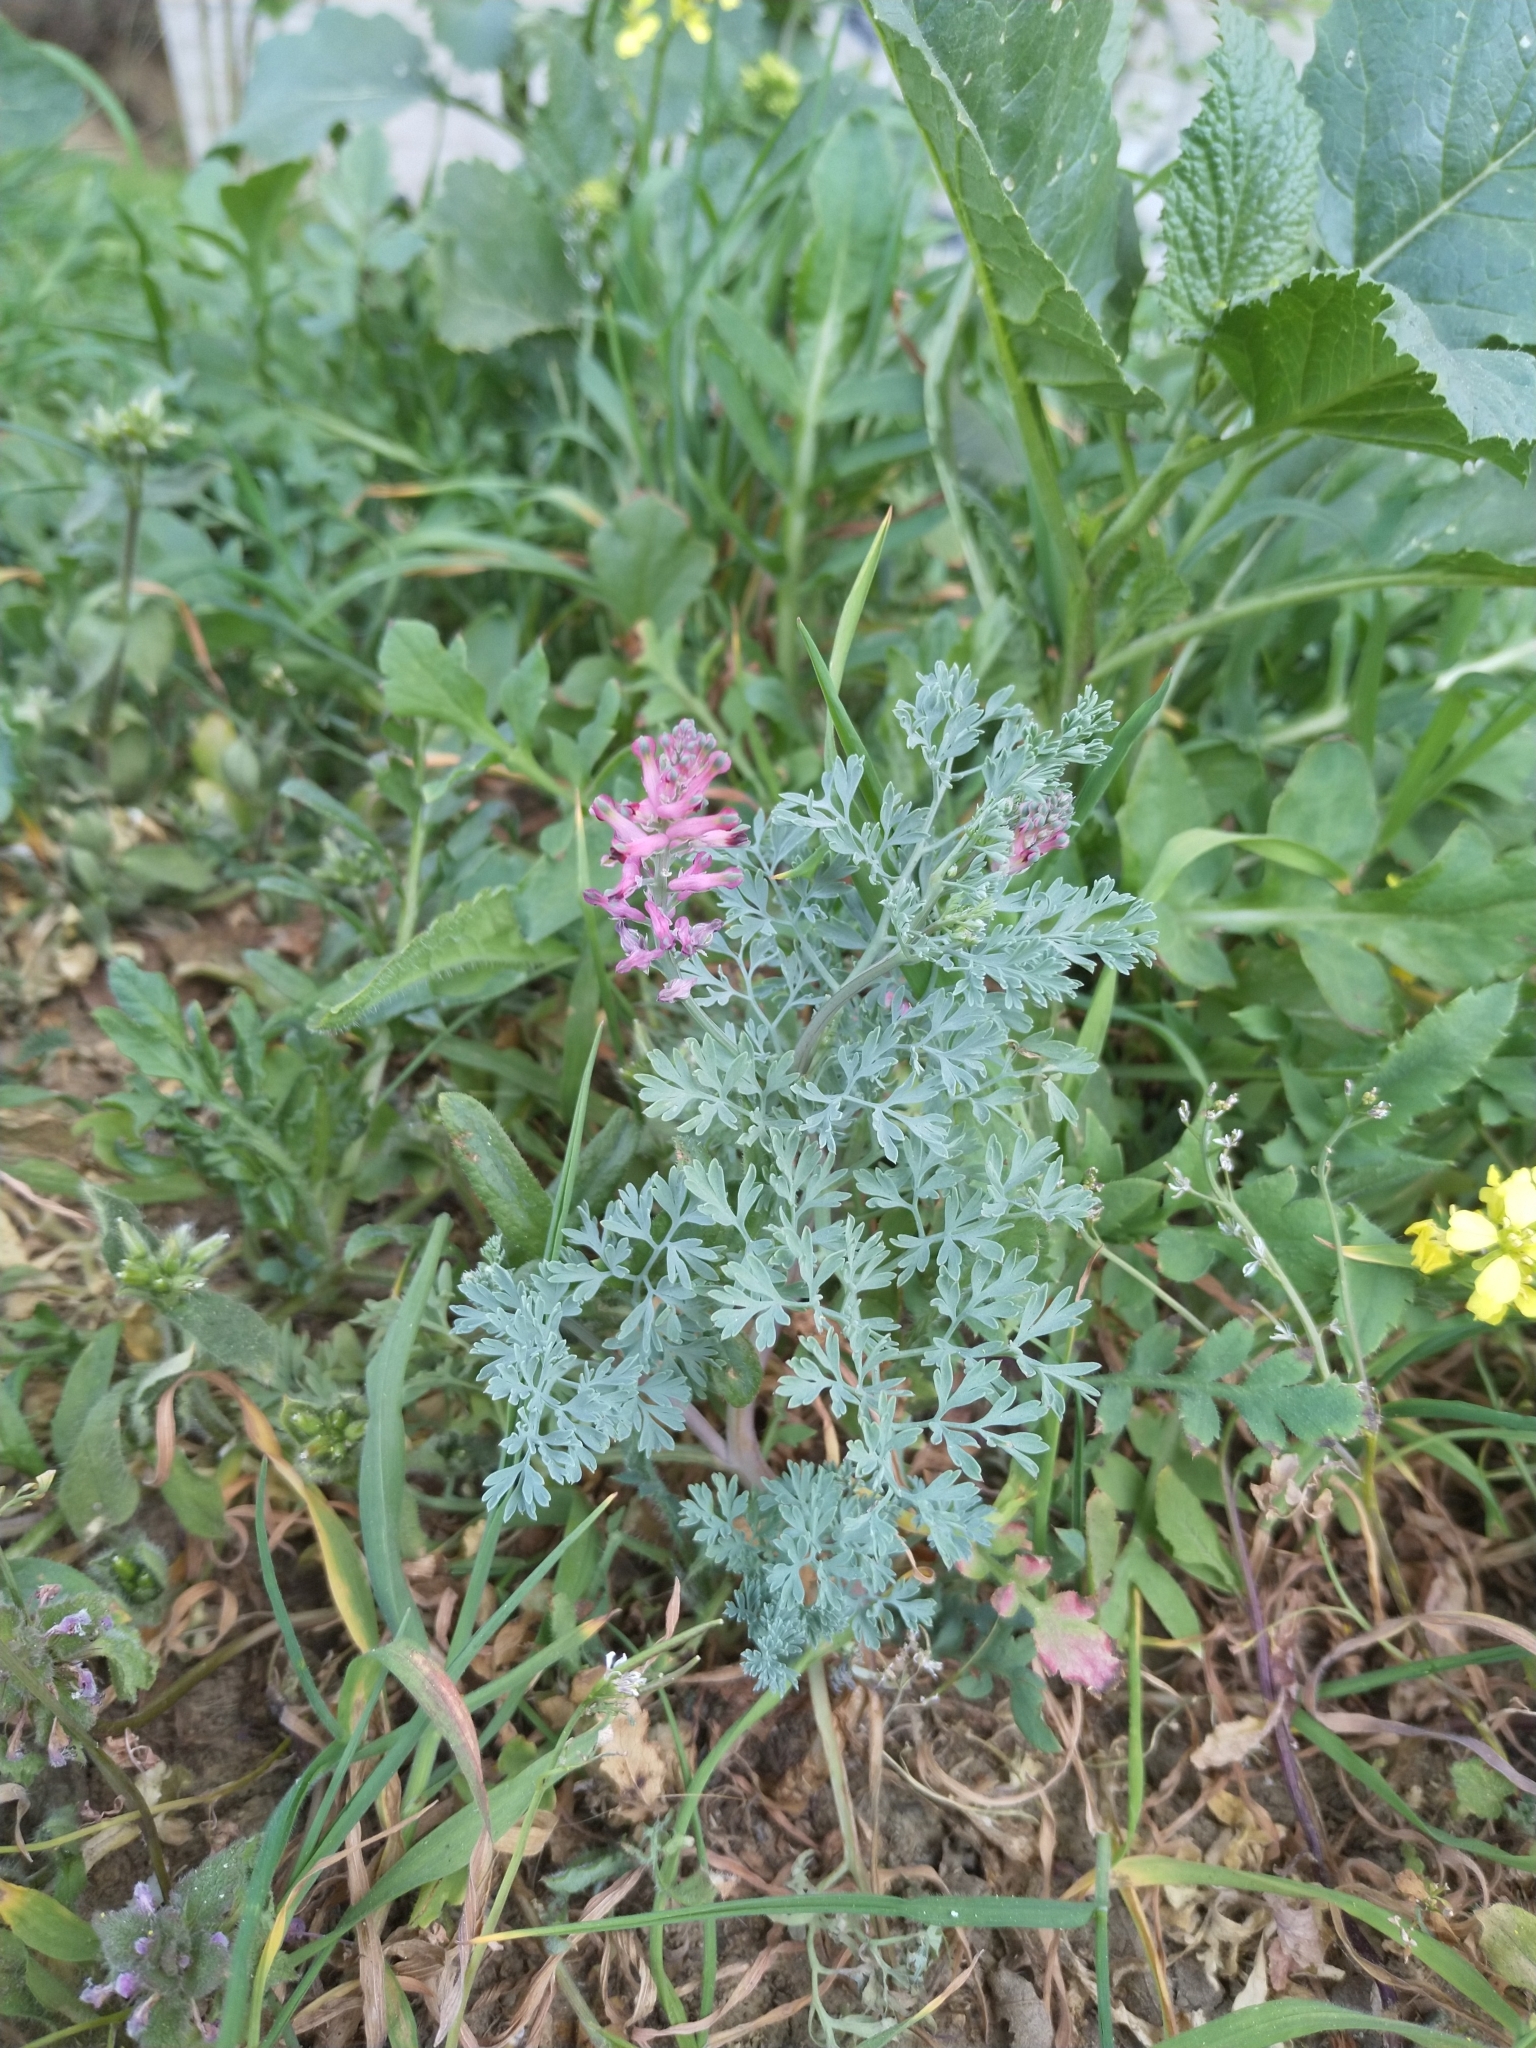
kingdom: Plantae
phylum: Tracheophyta
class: Magnoliopsida
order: Ranunculales
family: Papaveraceae
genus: Fumaria
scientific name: Fumaria officinalis
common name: Common fumitory
